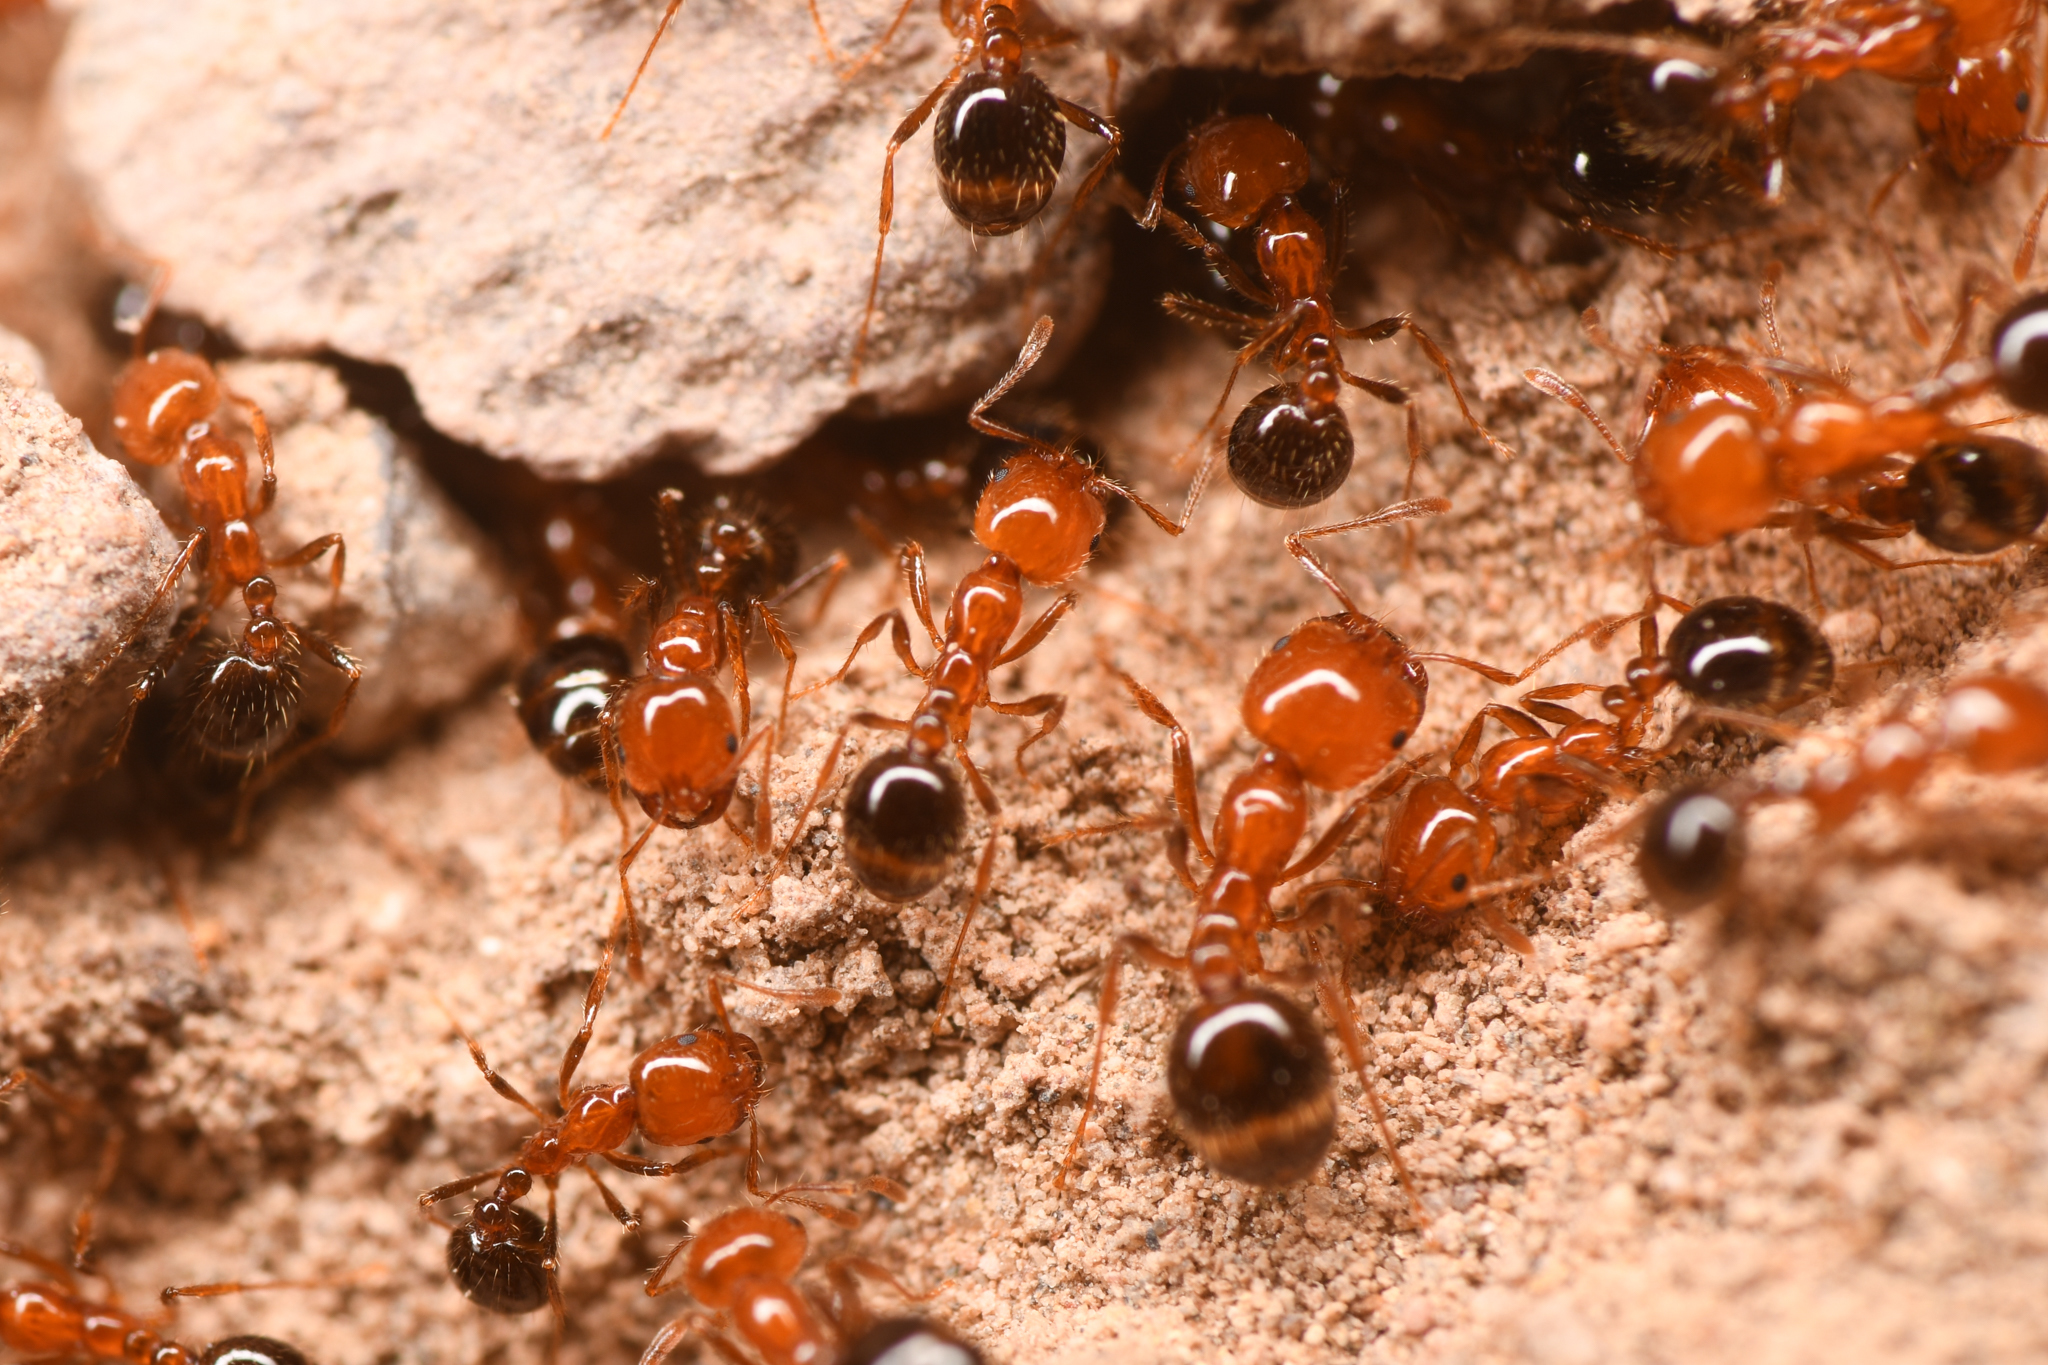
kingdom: Animalia
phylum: Arthropoda
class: Insecta
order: Hymenoptera
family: Formicidae
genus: Solenopsis
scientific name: Solenopsis xyloni
